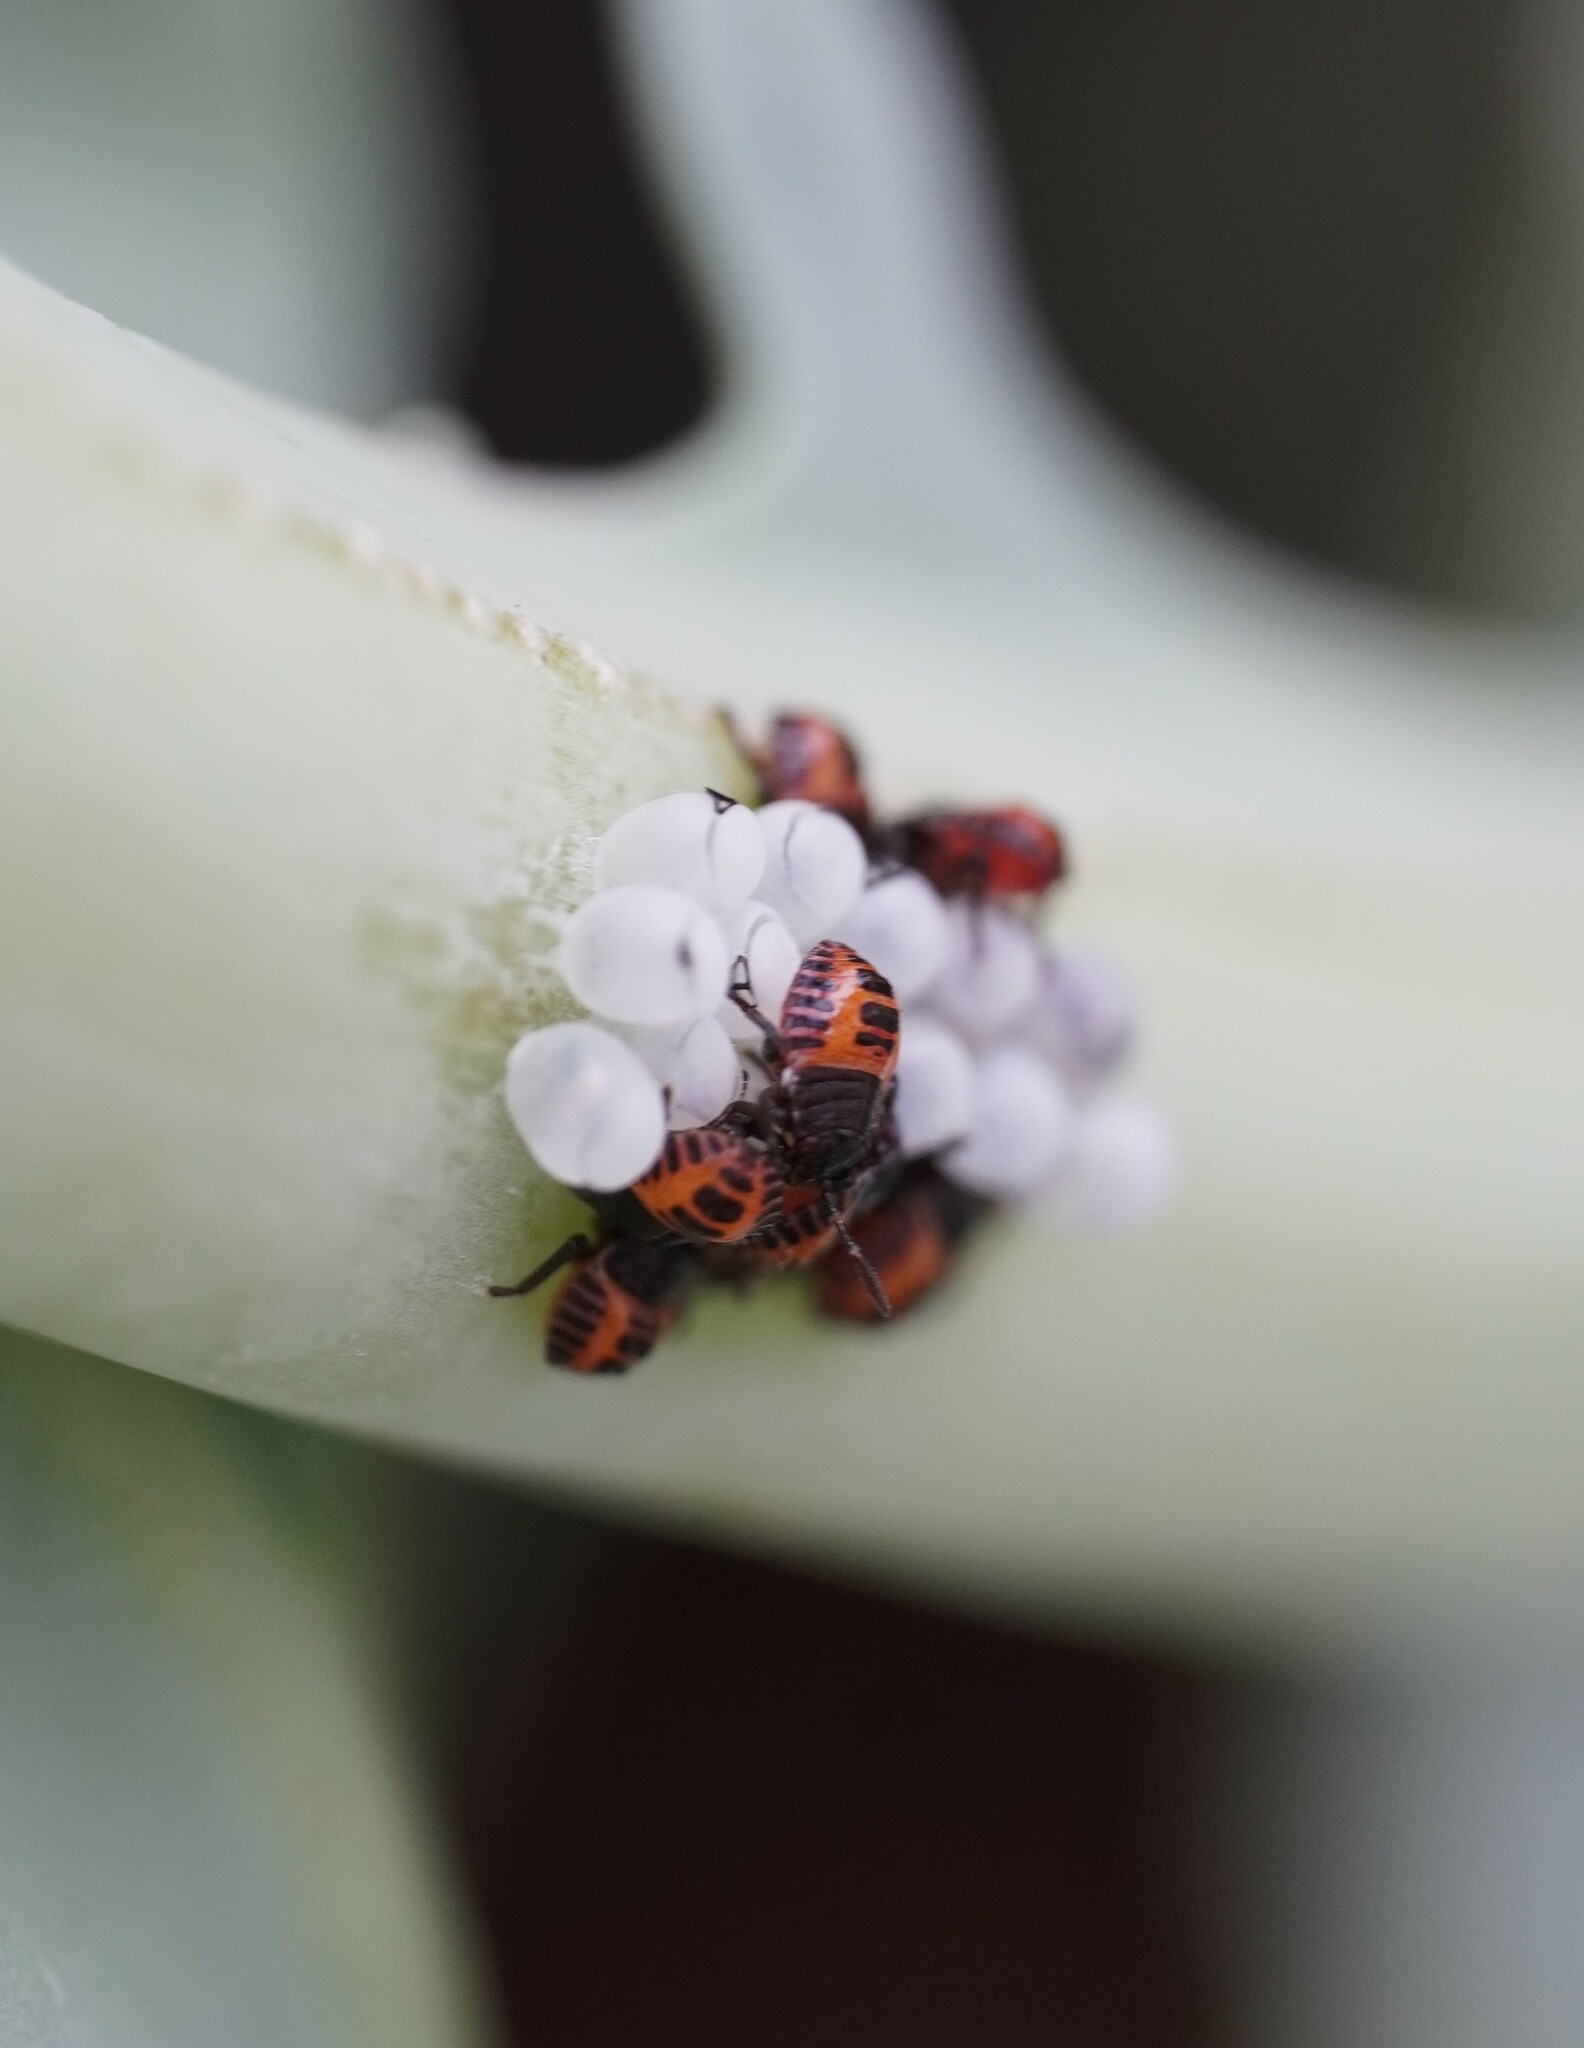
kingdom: Animalia
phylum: Arthropoda
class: Insecta
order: Hemiptera
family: Pentatomidae
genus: Halyomorpha
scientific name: Halyomorpha halys
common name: Brown marmorated stink bug
